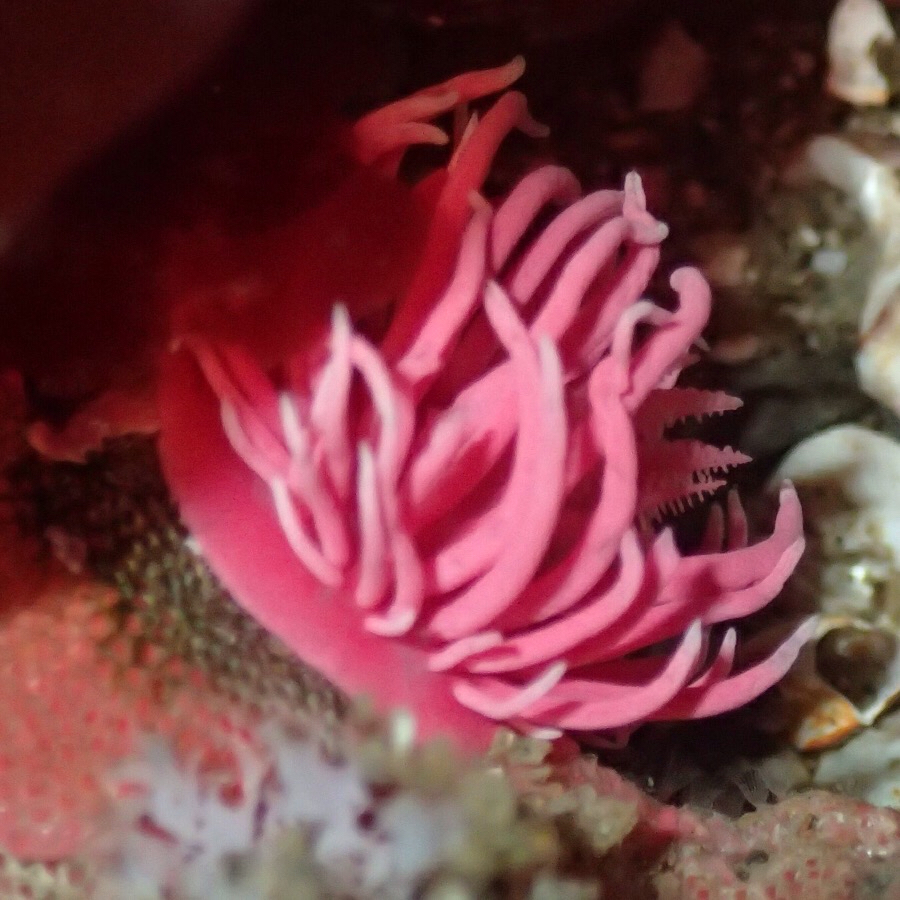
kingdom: Animalia
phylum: Mollusca
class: Gastropoda
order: Nudibranchia
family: Goniodorididae
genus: Okenia
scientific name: Okenia
